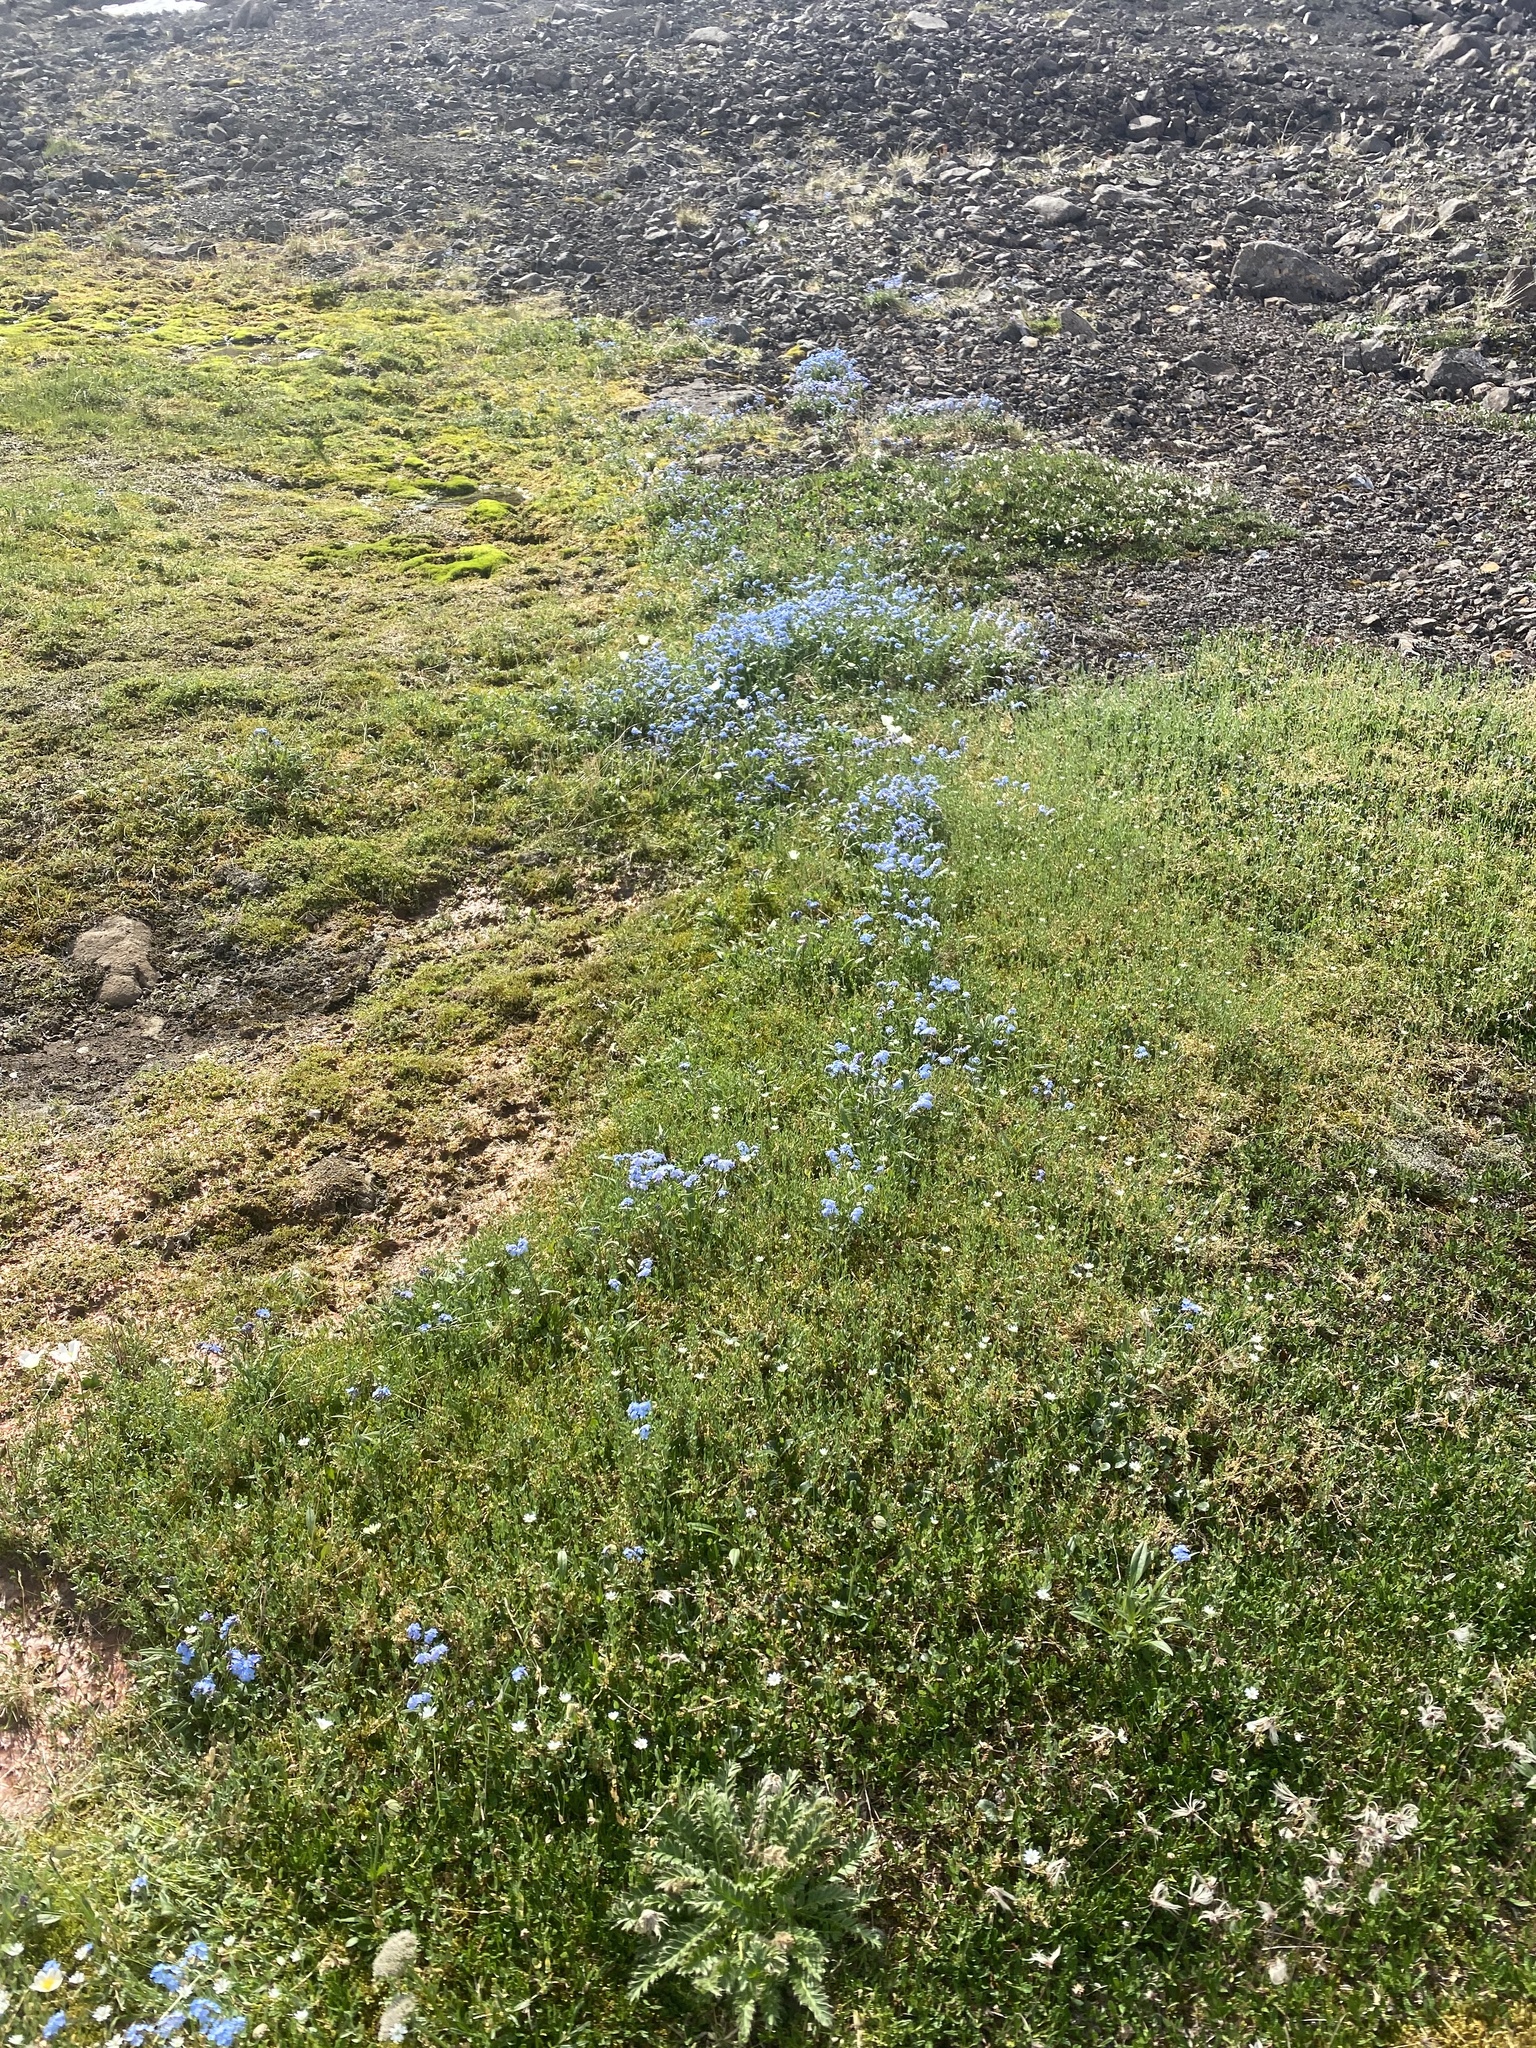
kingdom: Plantae
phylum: Tracheophyta
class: Magnoliopsida
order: Caryophyllales
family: Caryophyllaceae
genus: Stellaria
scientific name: Stellaria longipes
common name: Goldie's starwort
